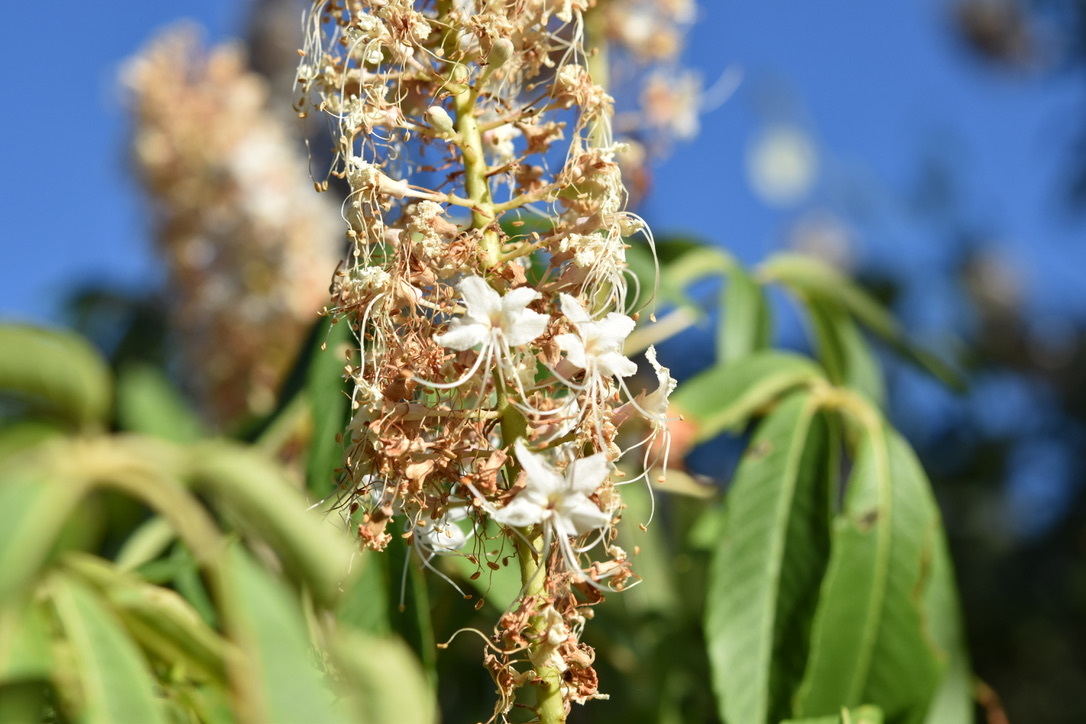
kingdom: Plantae
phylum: Tracheophyta
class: Magnoliopsida
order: Sapindales
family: Sapindaceae
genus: Aesculus
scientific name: Aesculus californica
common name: California buckeye
